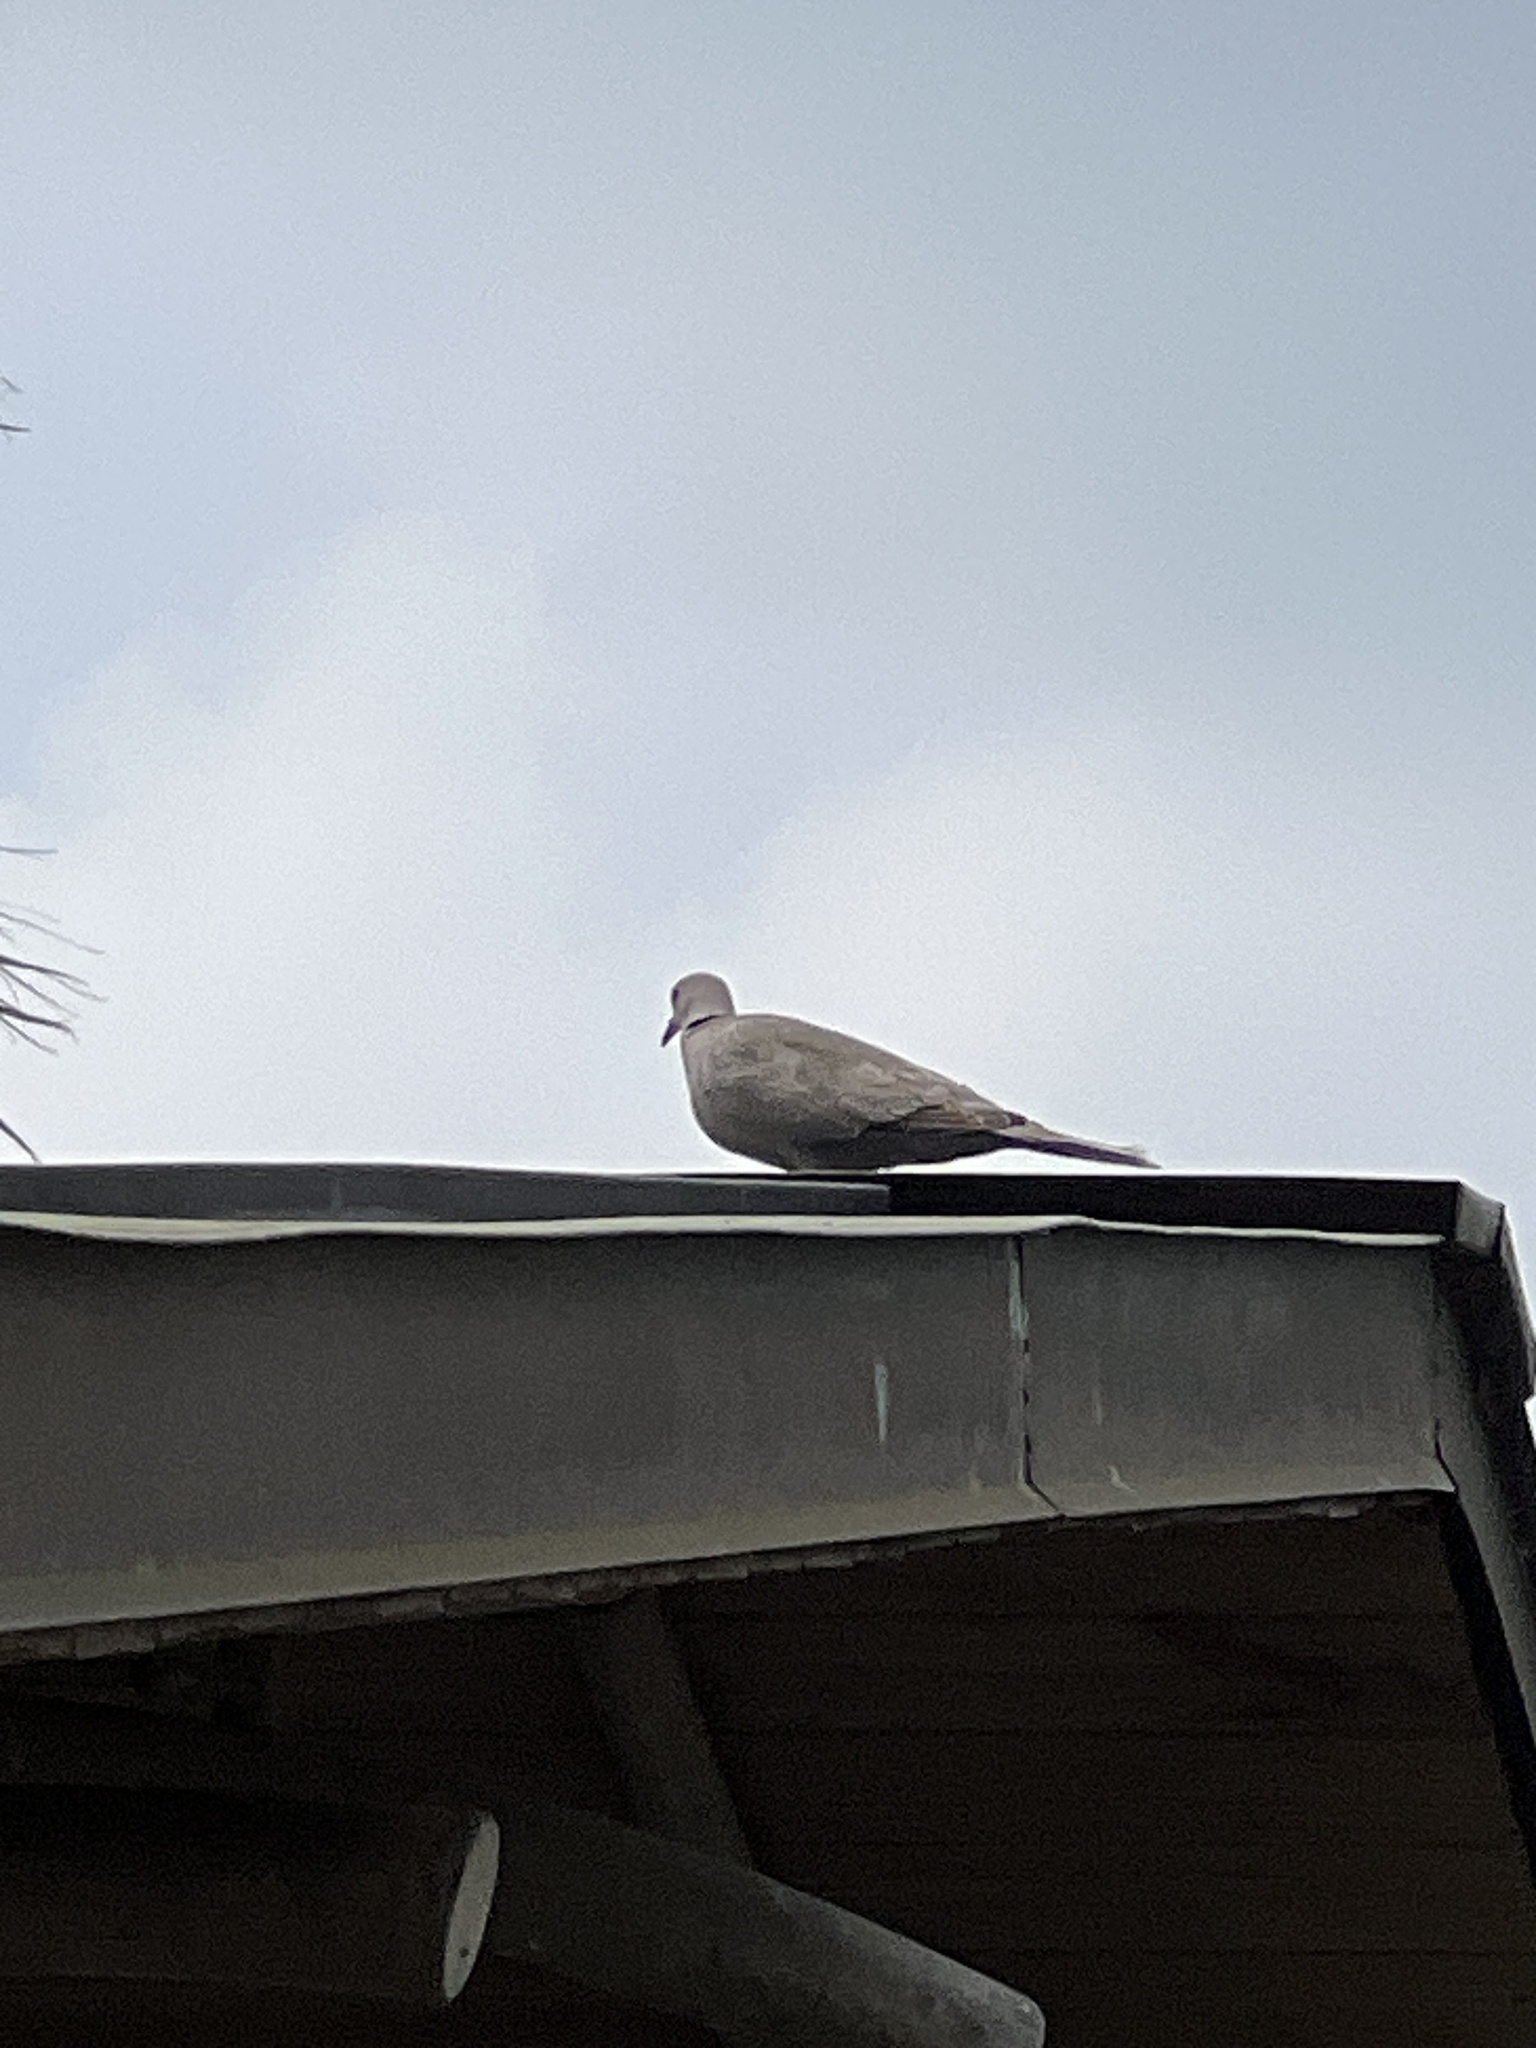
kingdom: Animalia
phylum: Chordata
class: Aves
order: Columbiformes
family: Columbidae
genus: Streptopelia
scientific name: Streptopelia decaocto
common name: Eurasian collared dove
